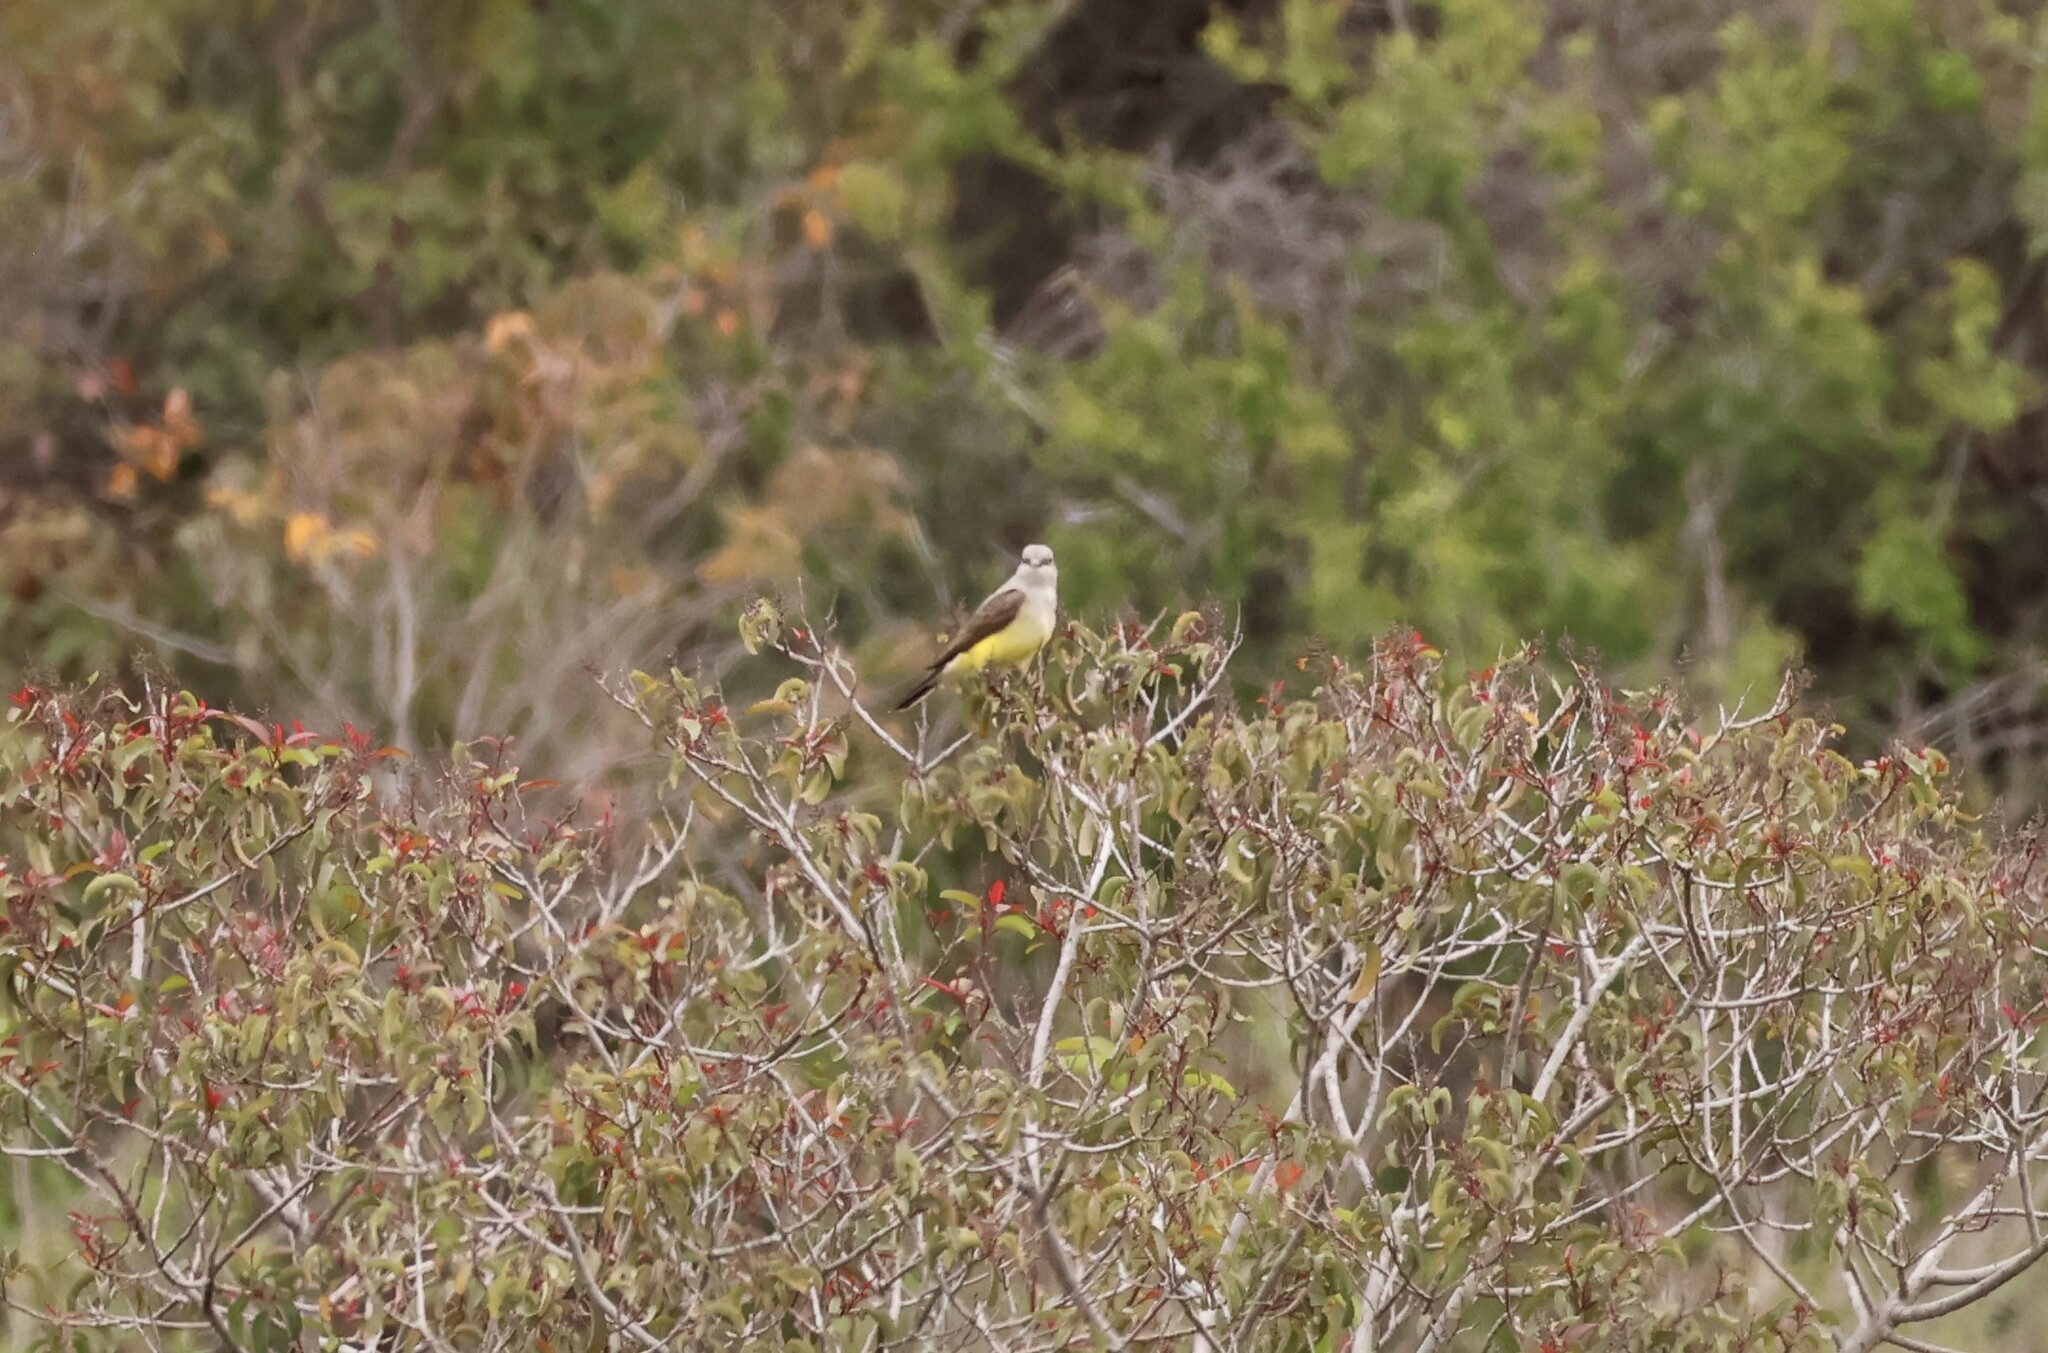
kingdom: Animalia
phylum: Chordata
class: Aves
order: Passeriformes
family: Tyrannidae
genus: Tyrannus
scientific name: Tyrannus verticalis
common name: Western kingbird
